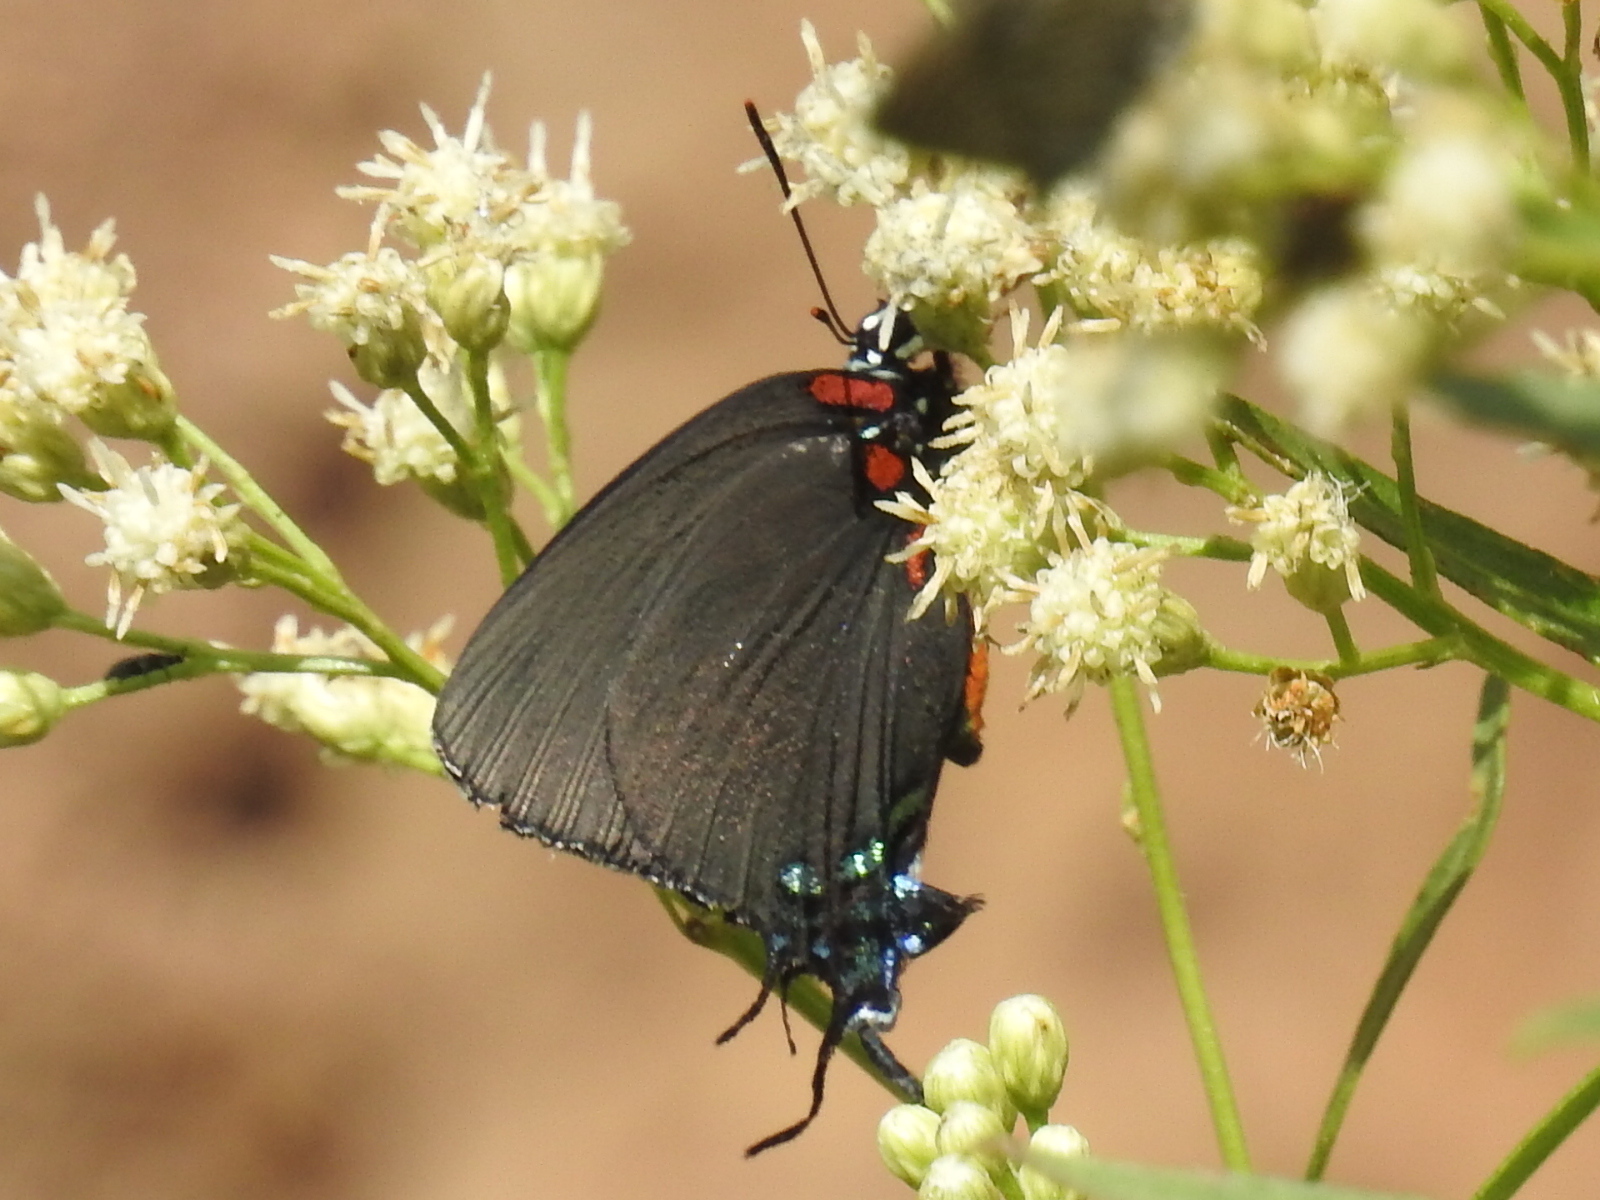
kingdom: Animalia
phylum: Arthropoda
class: Insecta
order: Lepidoptera
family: Lycaenidae
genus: Atlides
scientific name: Atlides halesus
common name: Great purple hairstreak
